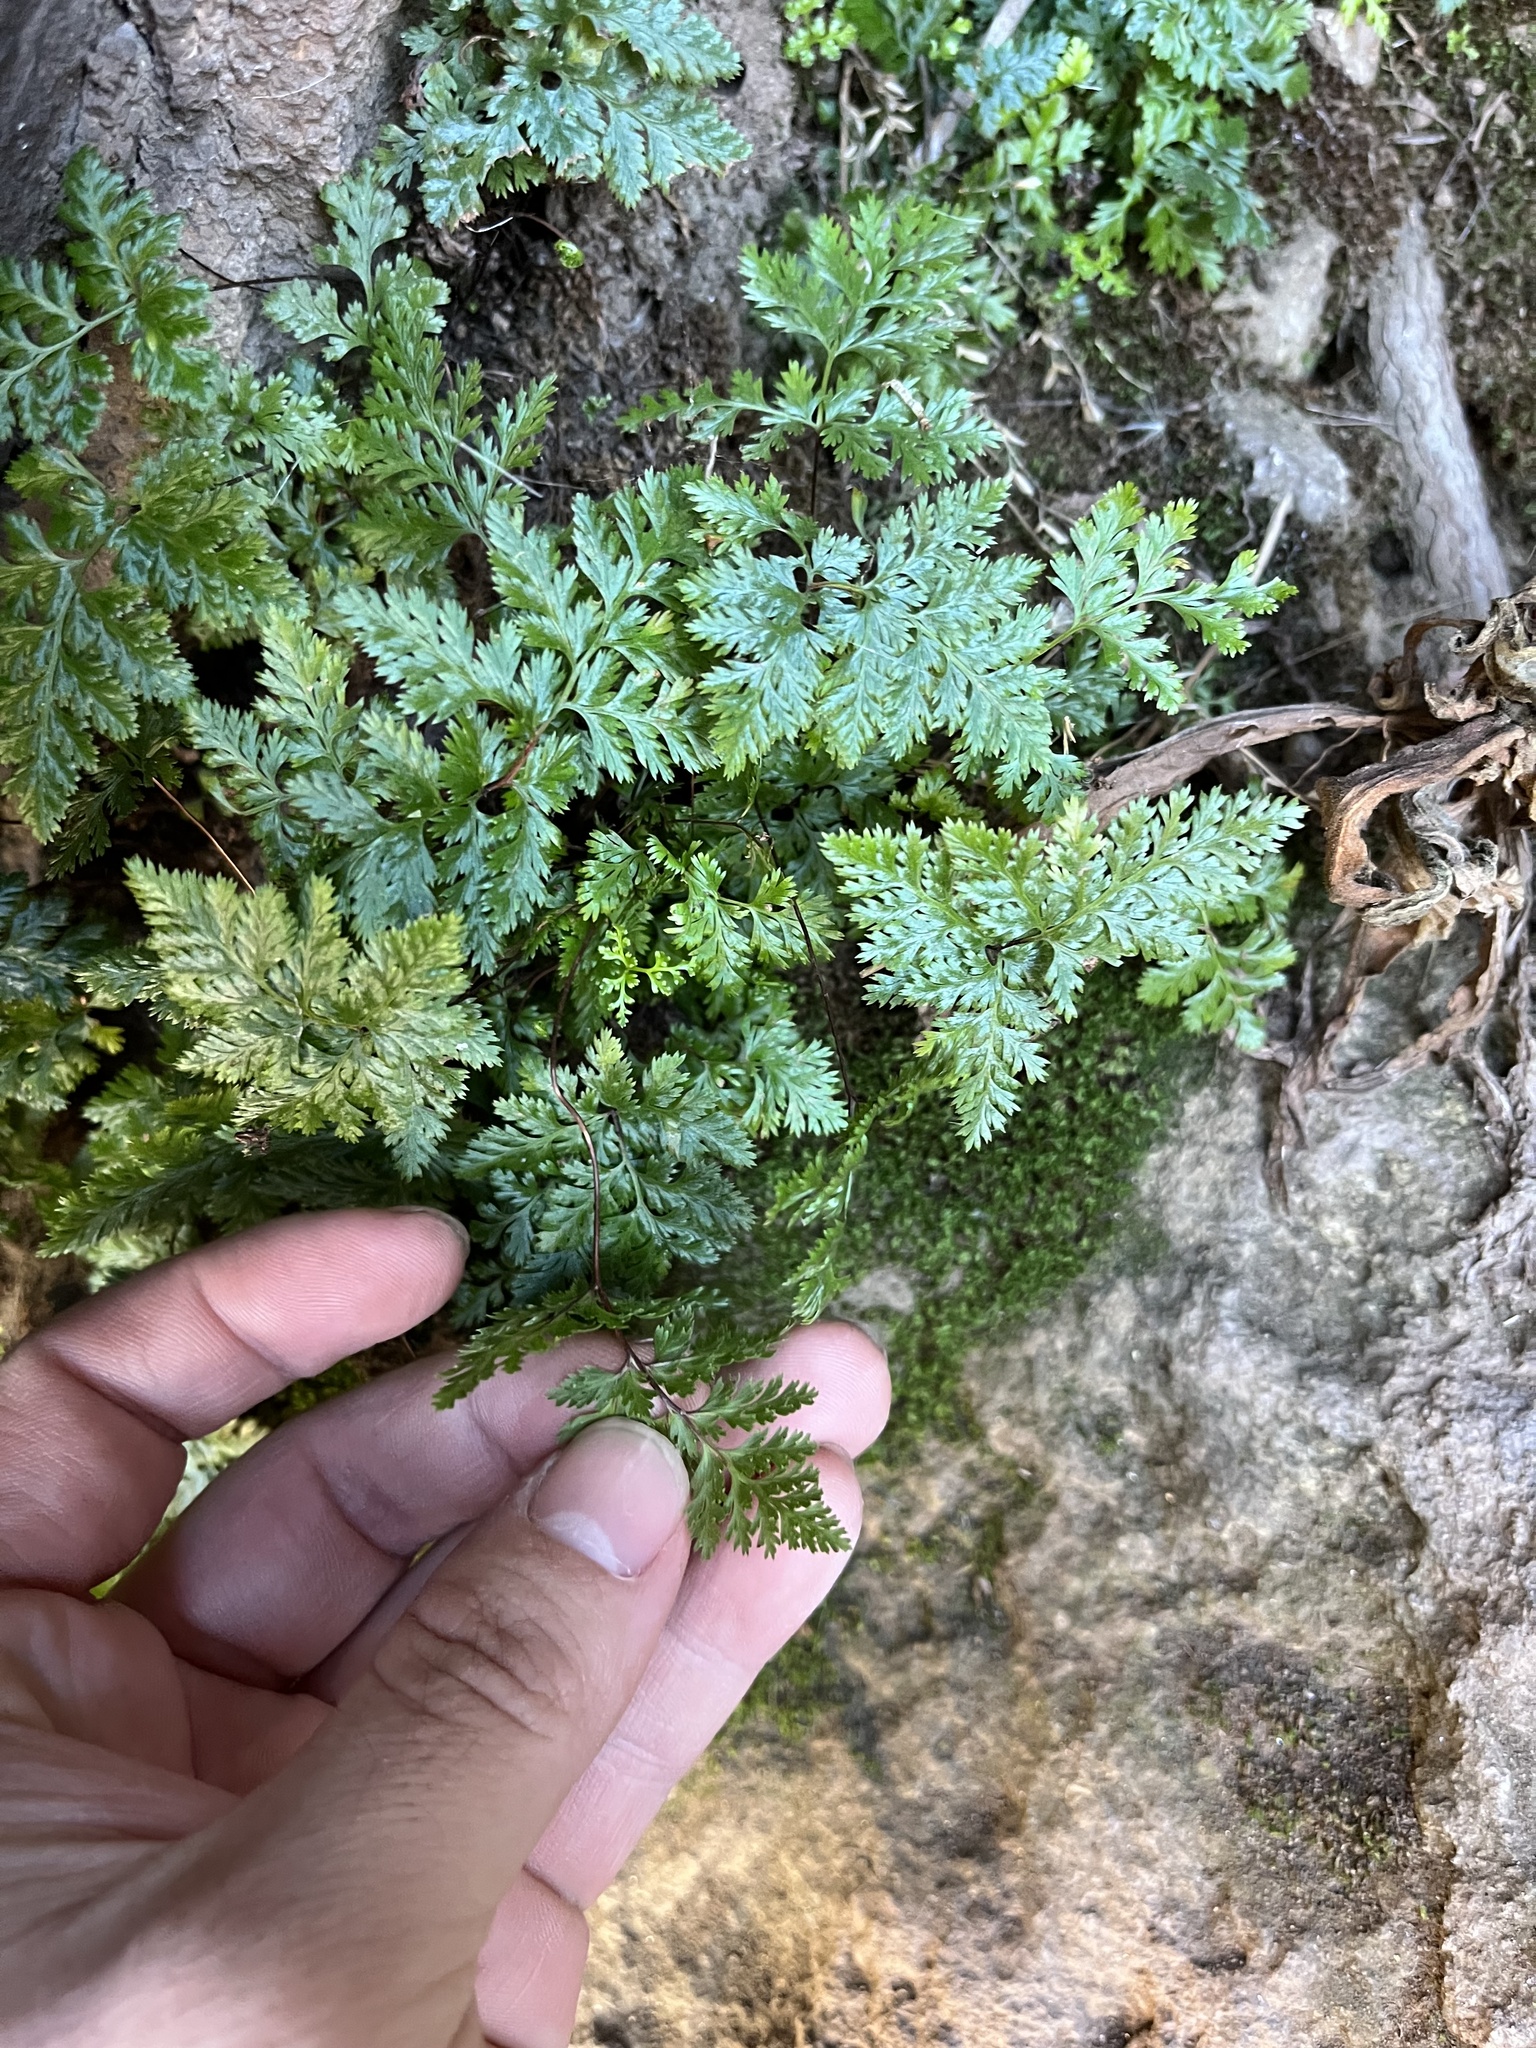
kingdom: Plantae
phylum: Tracheophyta
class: Polypodiopsida
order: Polypodiales
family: Pteridaceae
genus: Aspidotis
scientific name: Aspidotis californica
